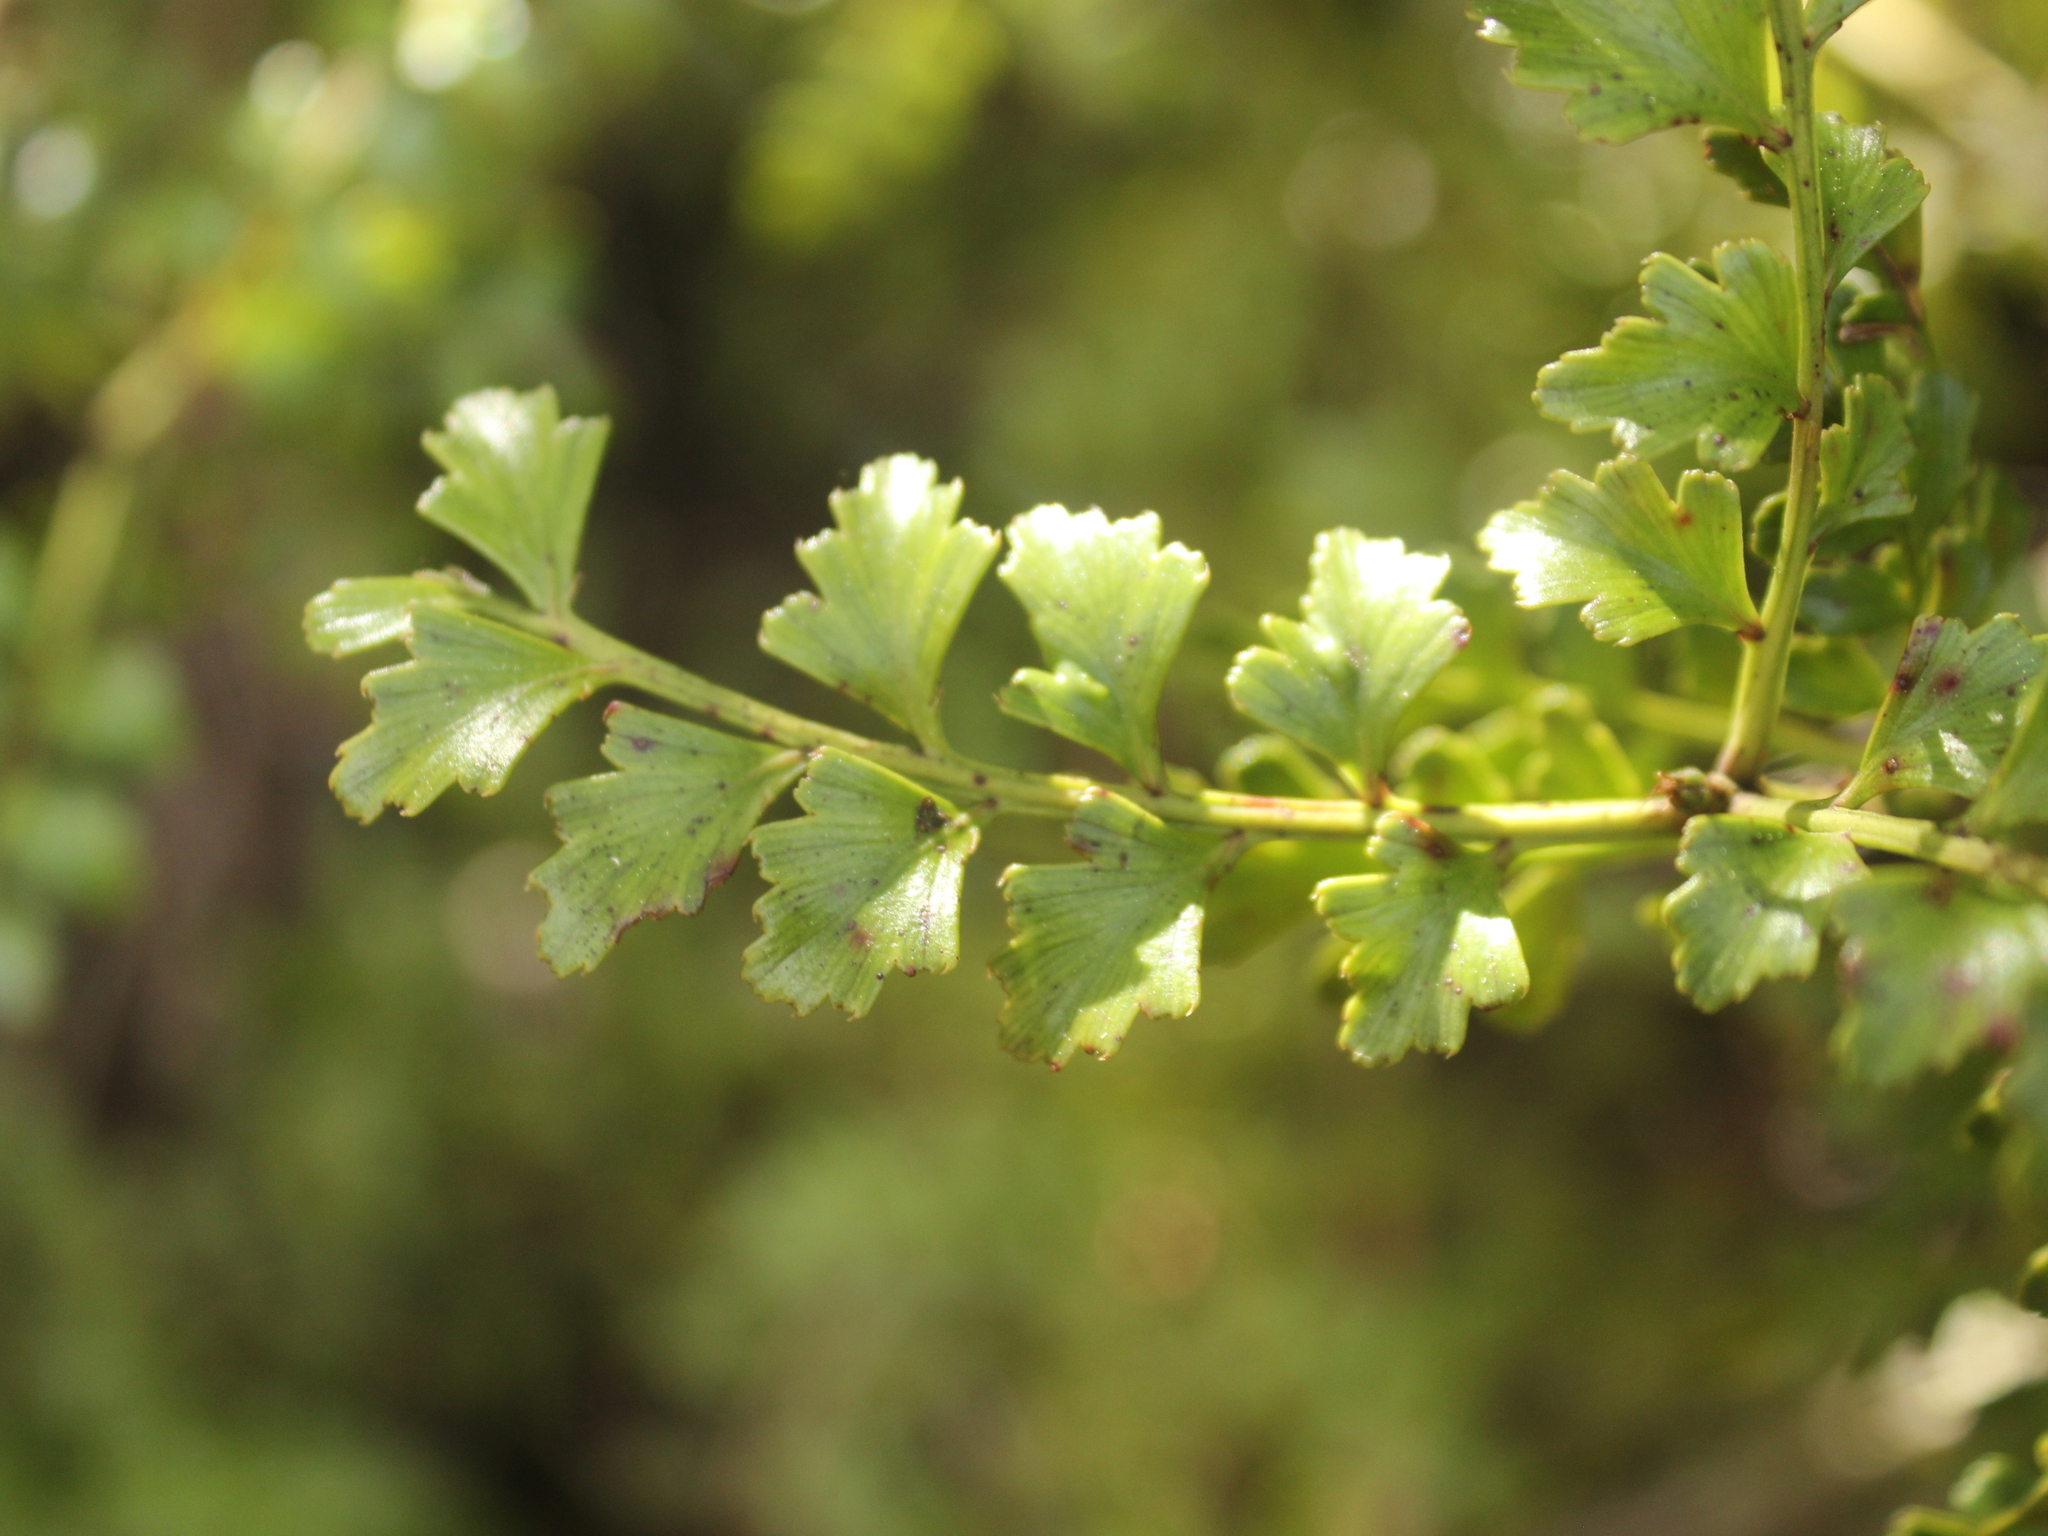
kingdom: Plantae
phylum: Tracheophyta
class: Pinopsida
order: Pinales
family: Phyllocladaceae
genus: Phyllocladus
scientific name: Phyllocladus trichomanoides
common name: Celery pine
